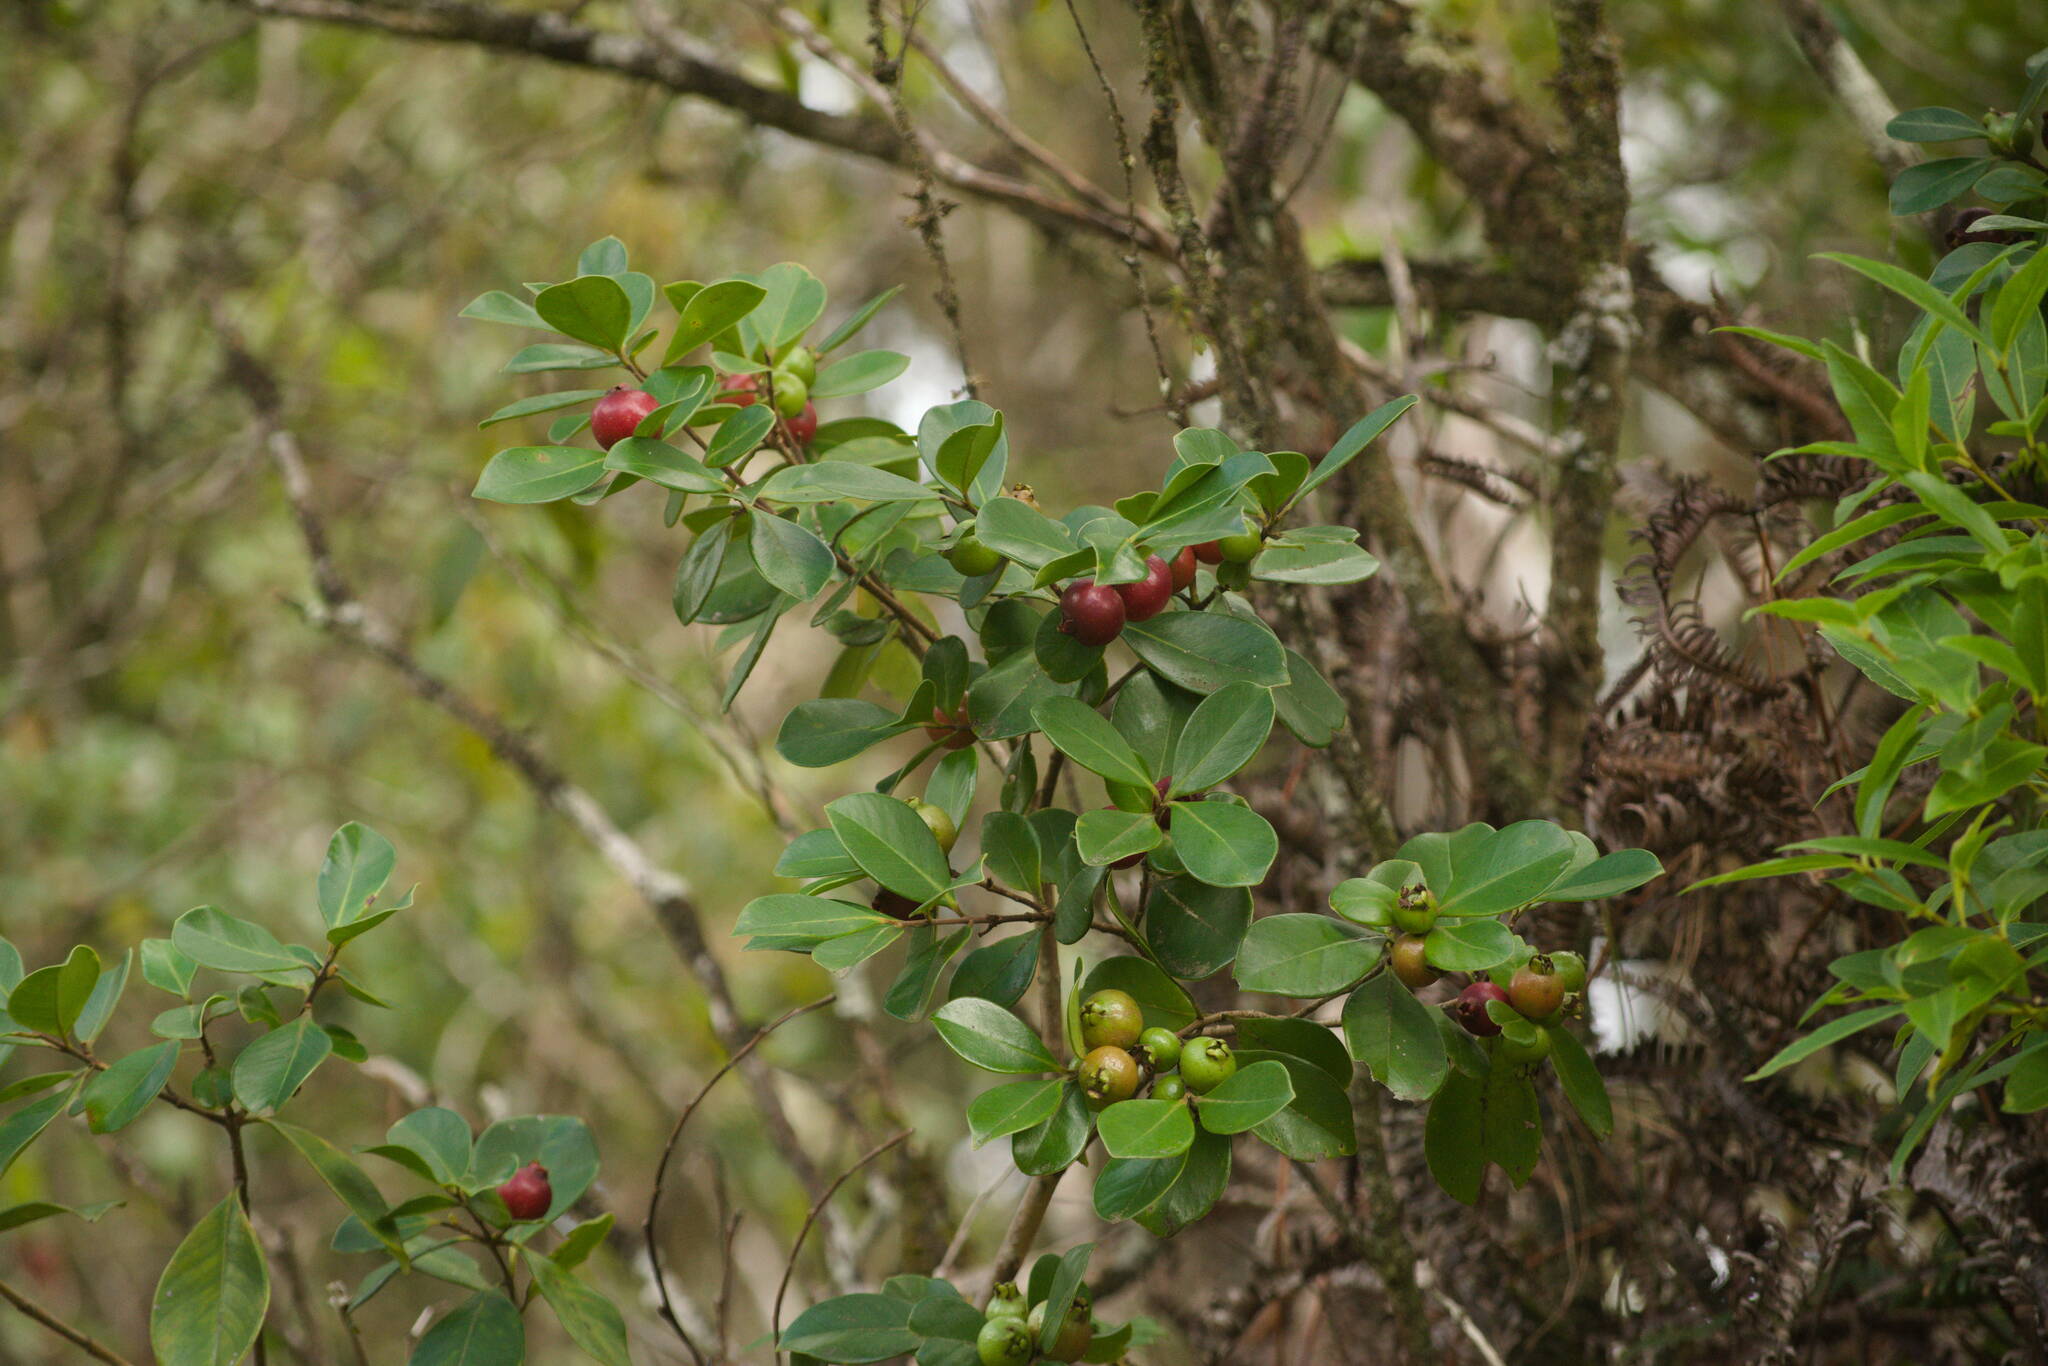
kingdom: Plantae
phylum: Tracheophyta
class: Magnoliopsida
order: Myrtales
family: Myrtaceae
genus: Psidium
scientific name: Psidium cattleianum
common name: Strawberry guava
